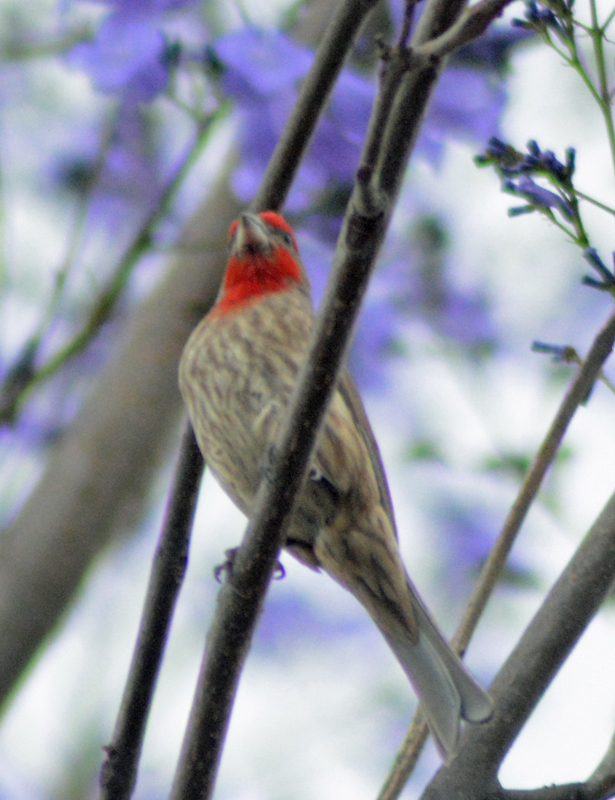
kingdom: Animalia
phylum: Chordata
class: Aves
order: Passeriformes
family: Fringillidae
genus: Haemorhous
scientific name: Haemorhous mexicanus
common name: House finch
